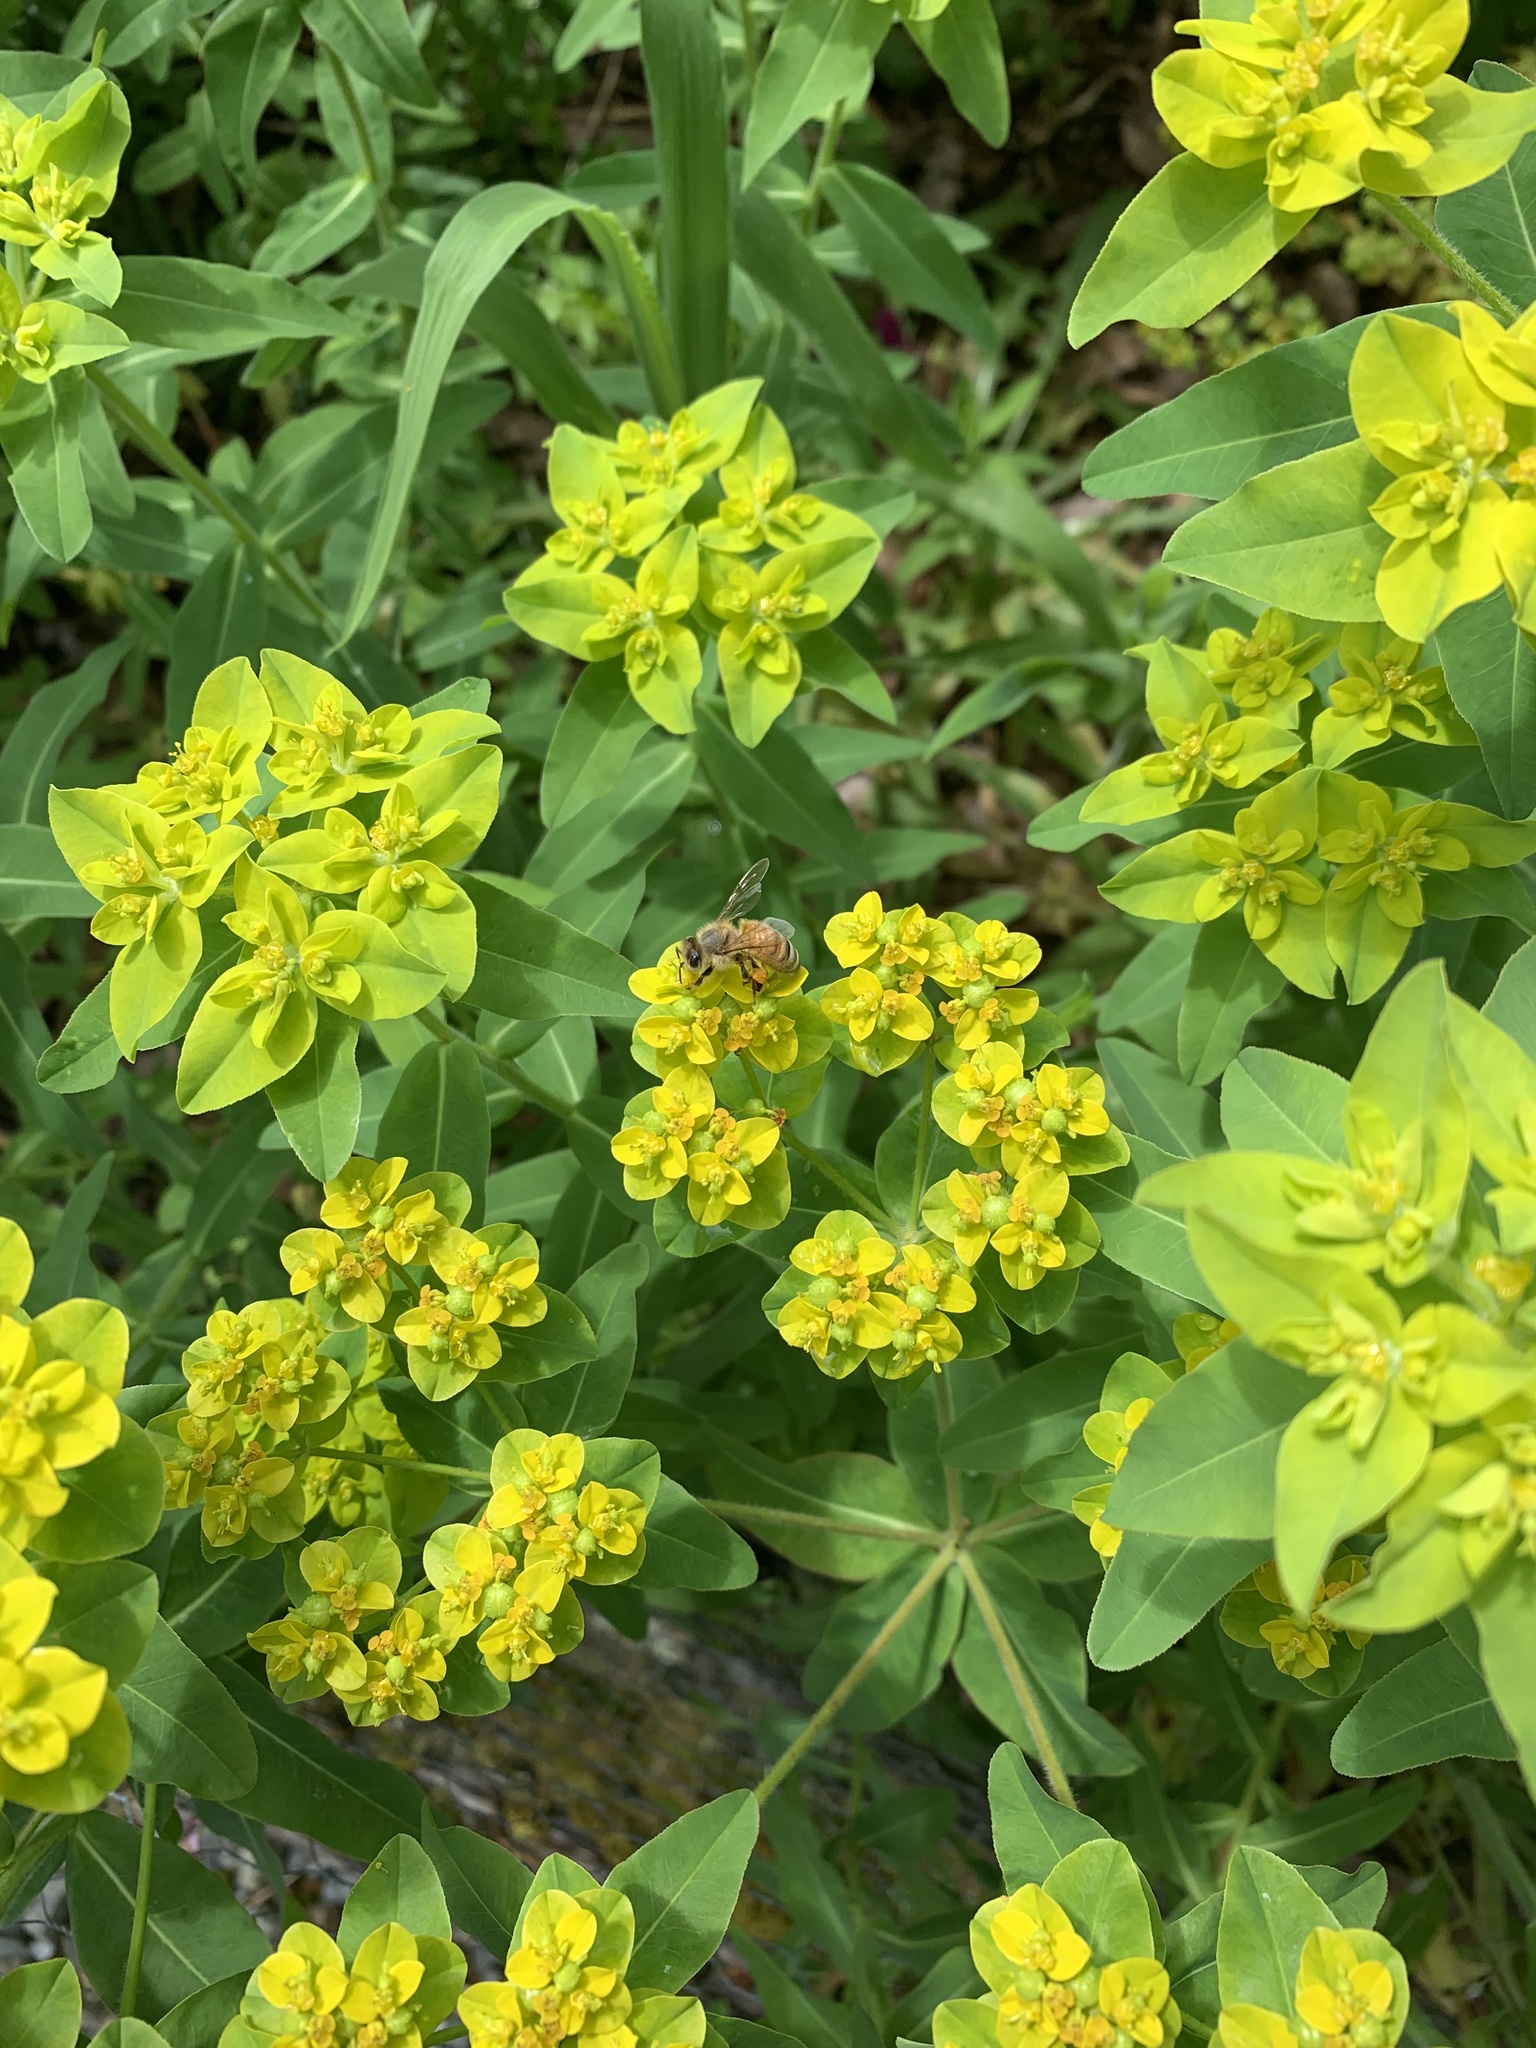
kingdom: Animalia
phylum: Arthropoda
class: Insecta
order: Hymenoptera
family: Apidae
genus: Apis
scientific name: Apis mellifera
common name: Honey bee
